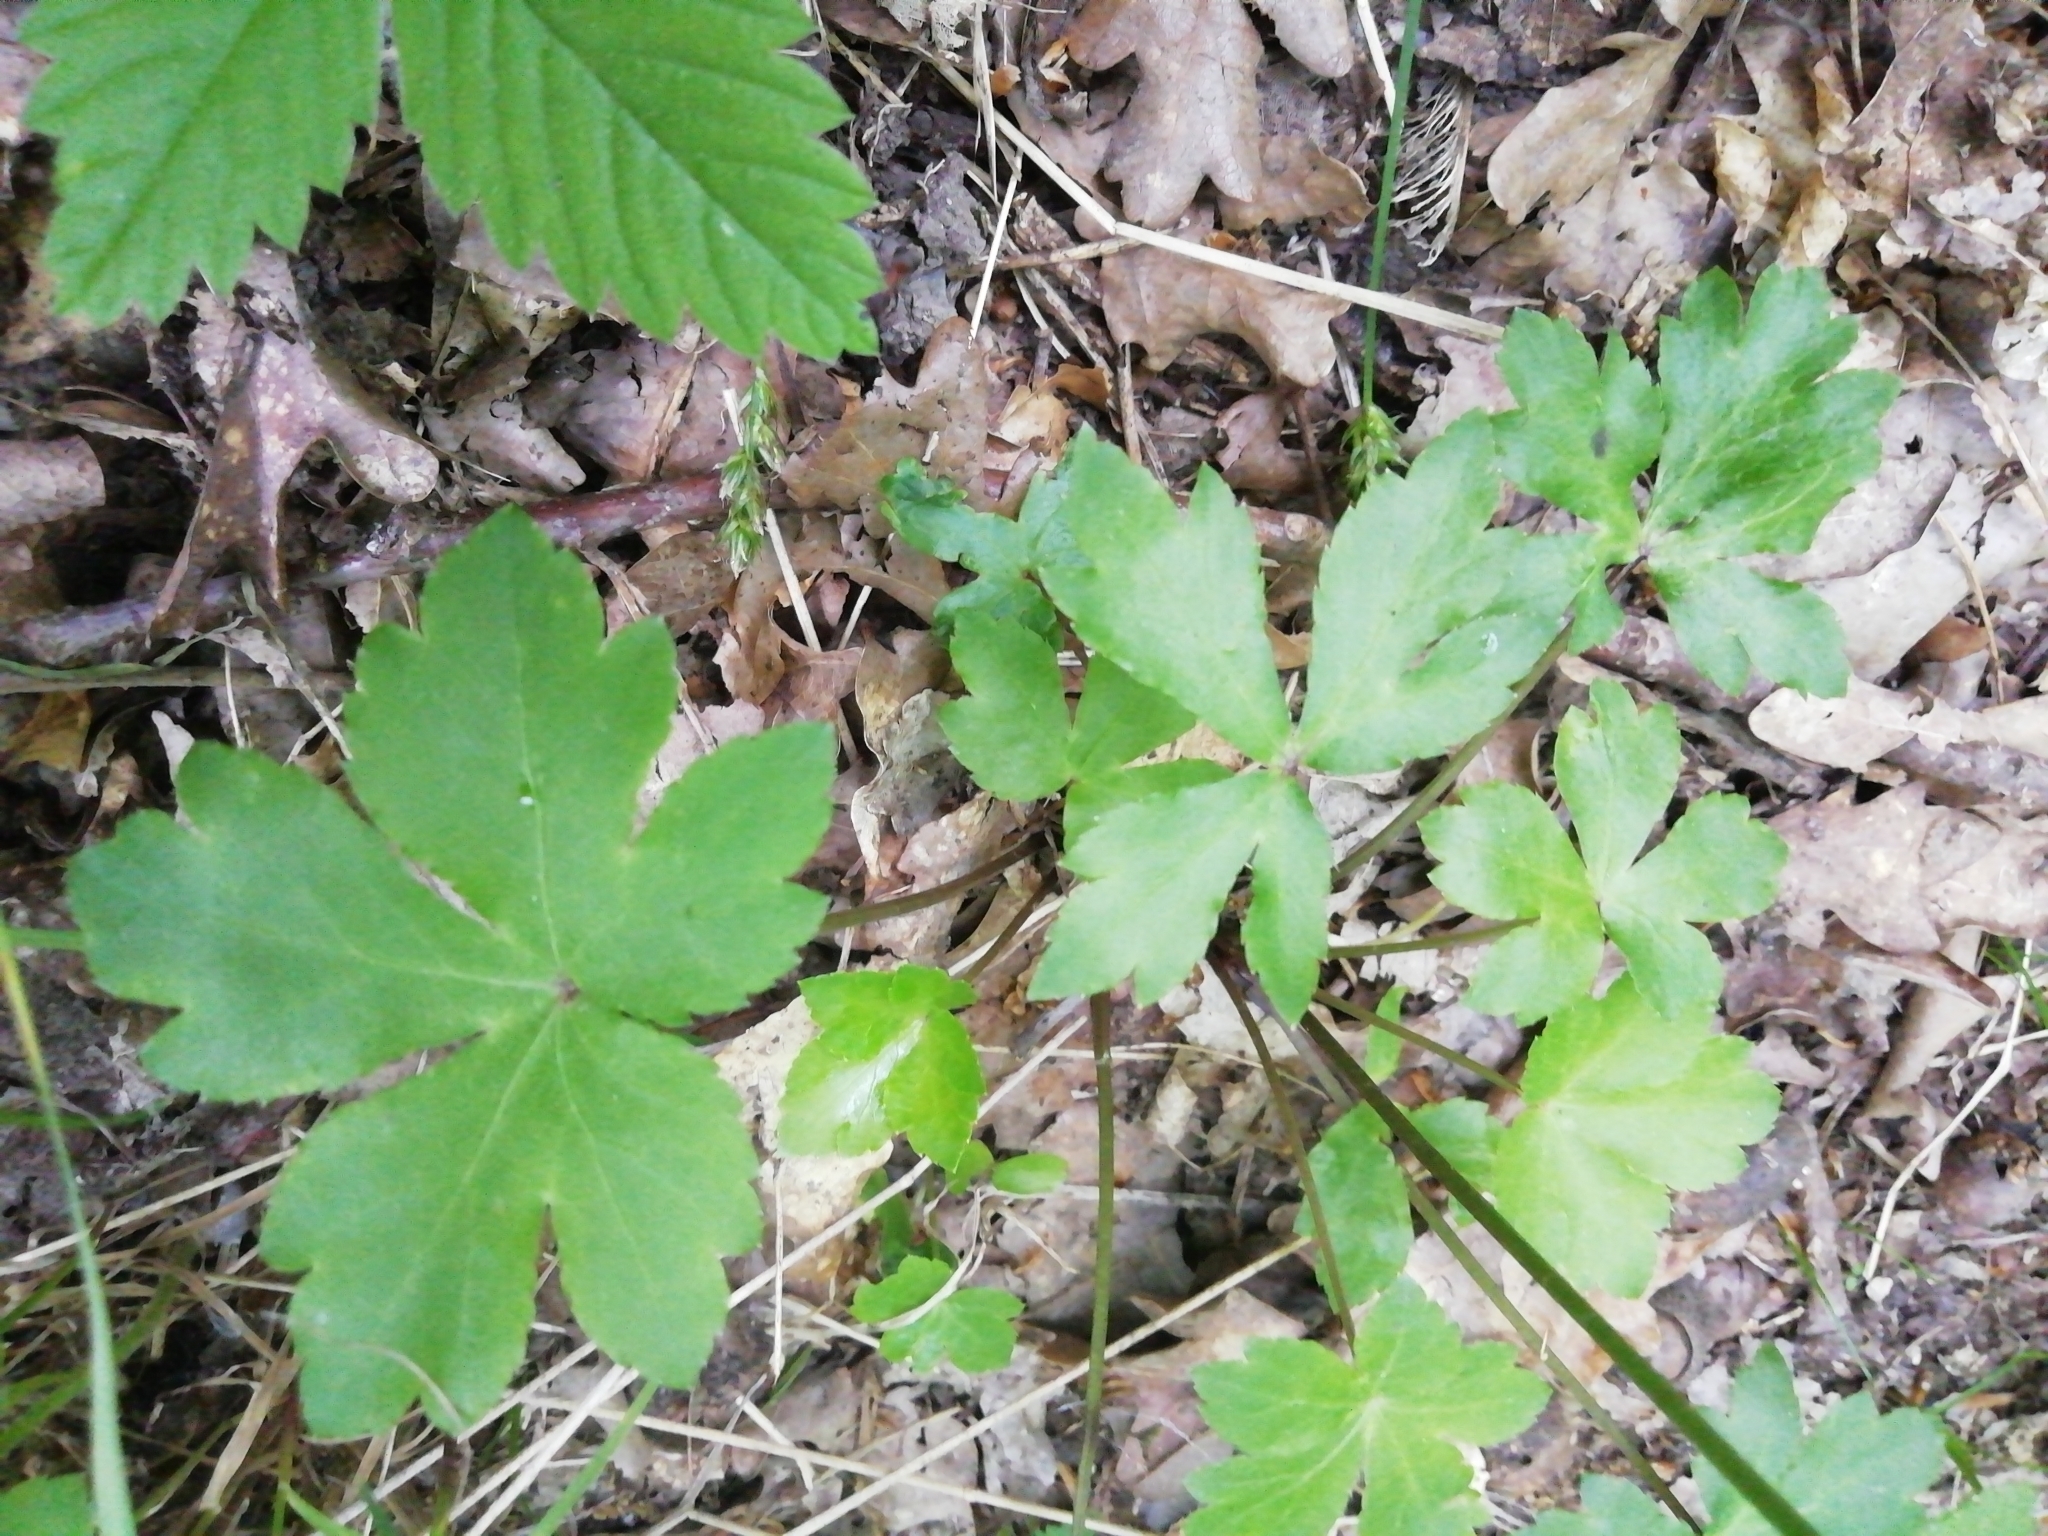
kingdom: Plantae
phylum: Tracheophyta
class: Magnoliopsida
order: Apiales
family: Apiaceae
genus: Sanicula
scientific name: Sanicula europaea
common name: Sanicle
